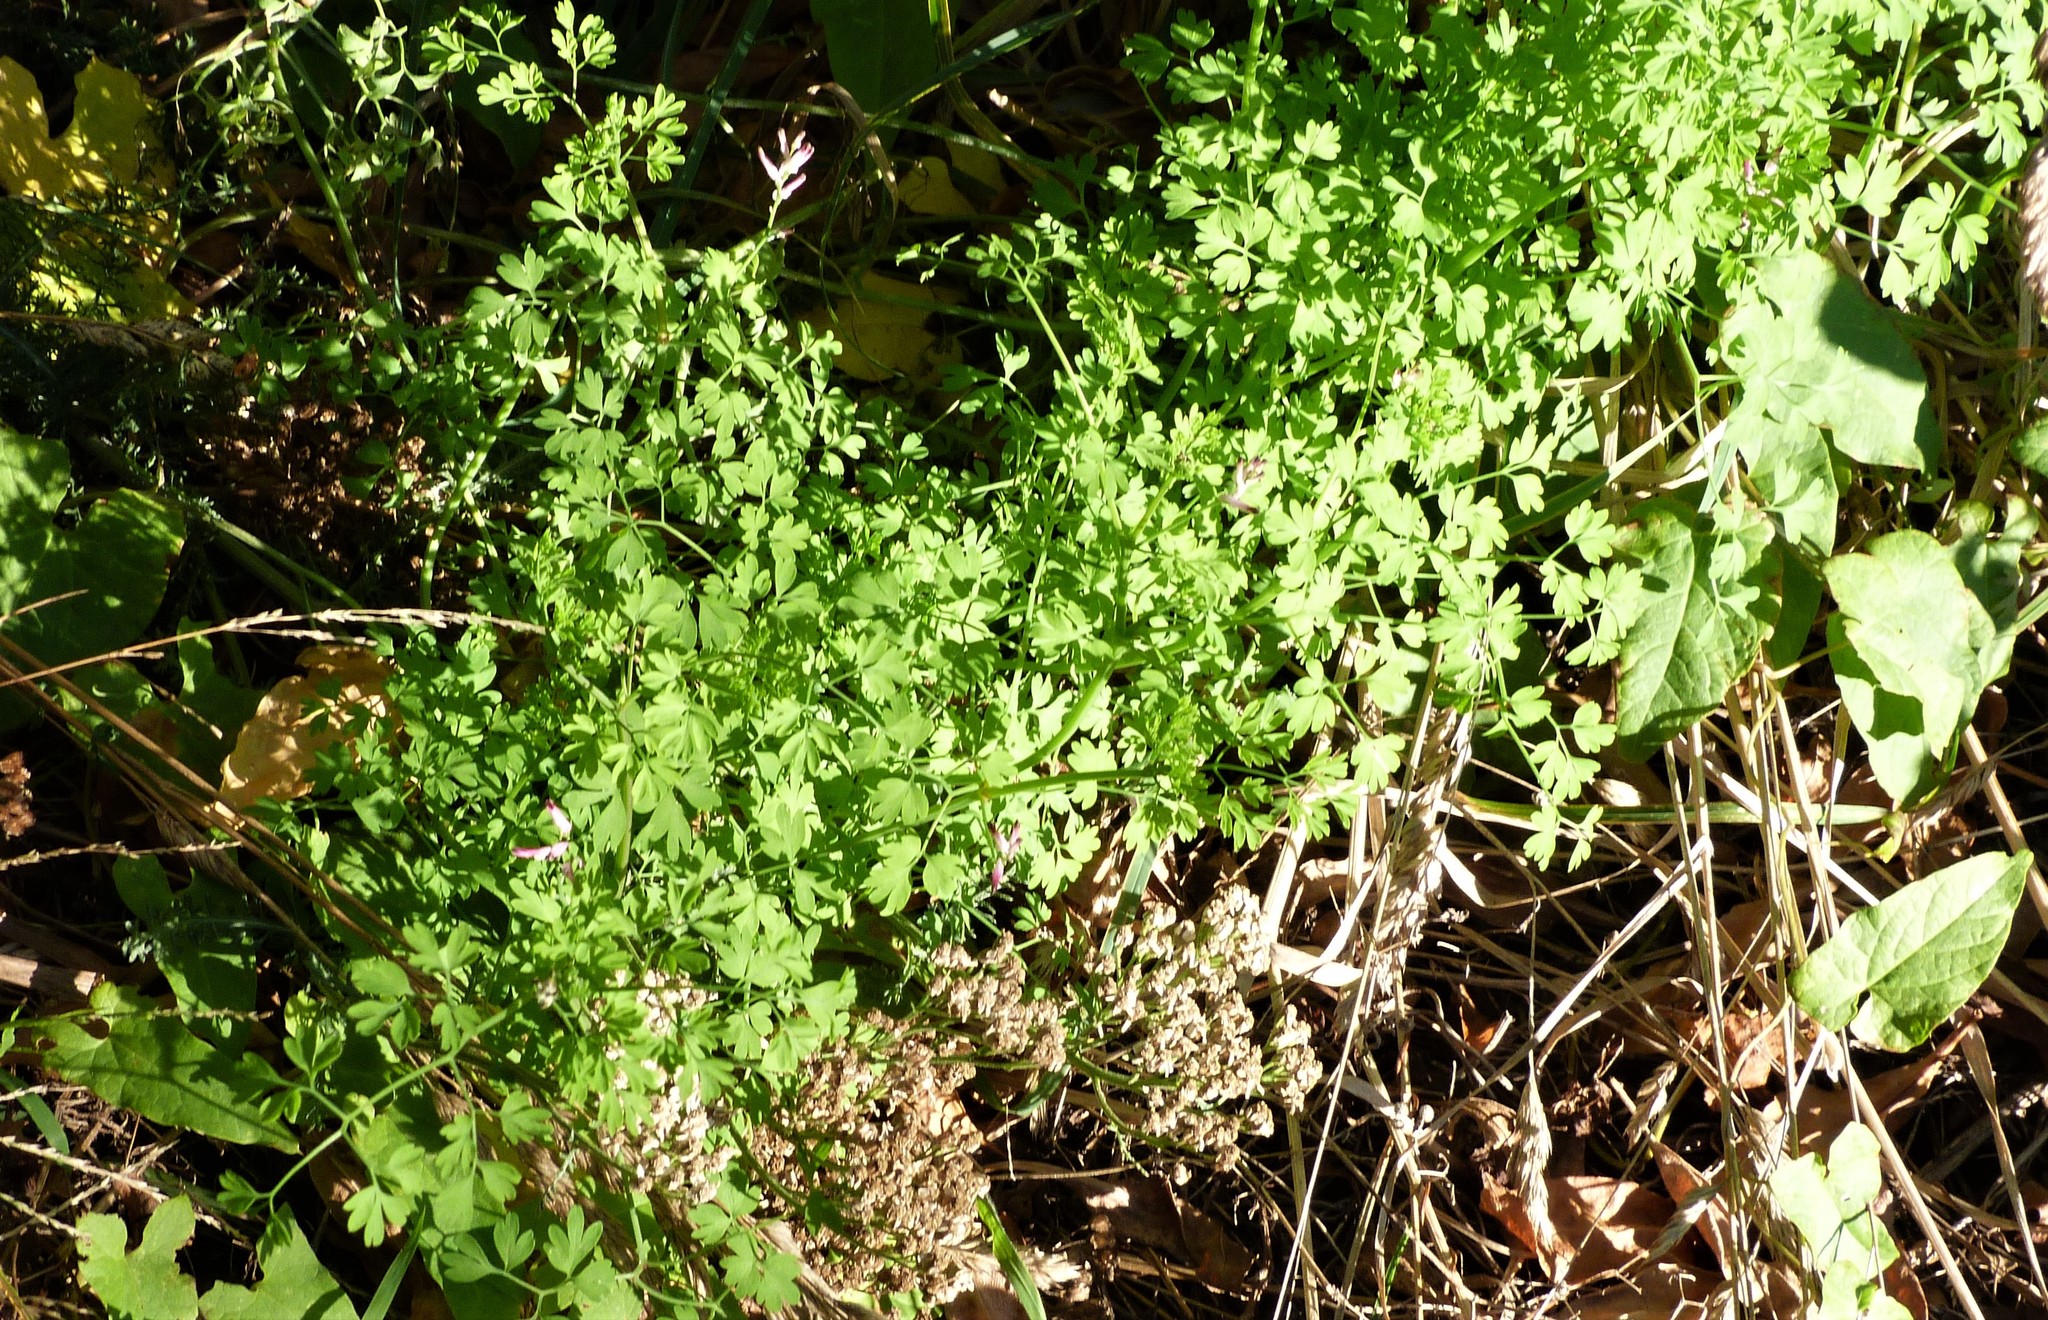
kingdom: Plantae
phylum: Tracheophyta
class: Magnoliopsida
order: Ranunculales
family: Papaveraceae
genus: Fumaria
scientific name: Fumaria muralis
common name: Common ramping-fumitory
